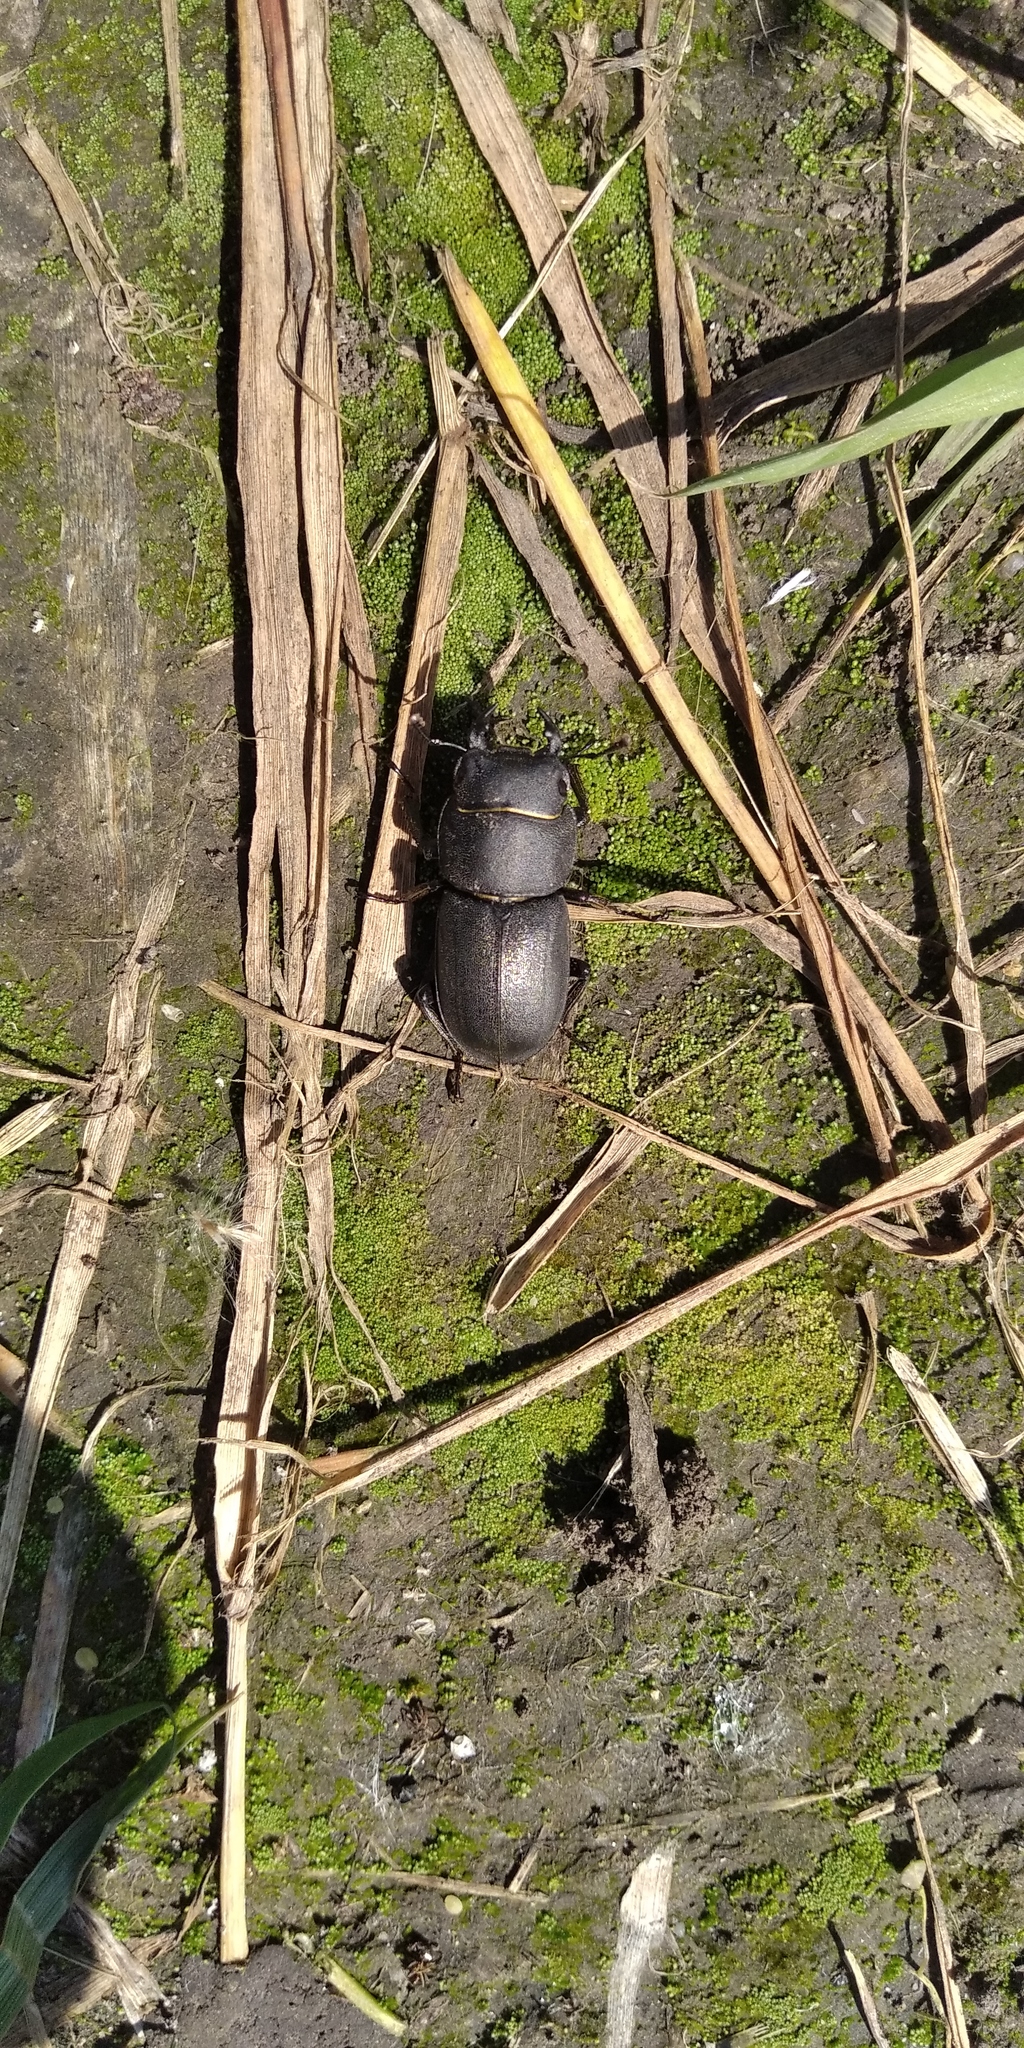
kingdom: Animalia
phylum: Arthropoda
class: Insecta
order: Coleoptera
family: Lucanidae
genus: Dorcus
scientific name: Dorcus parallelipipedus
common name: Lesser stag beetle
